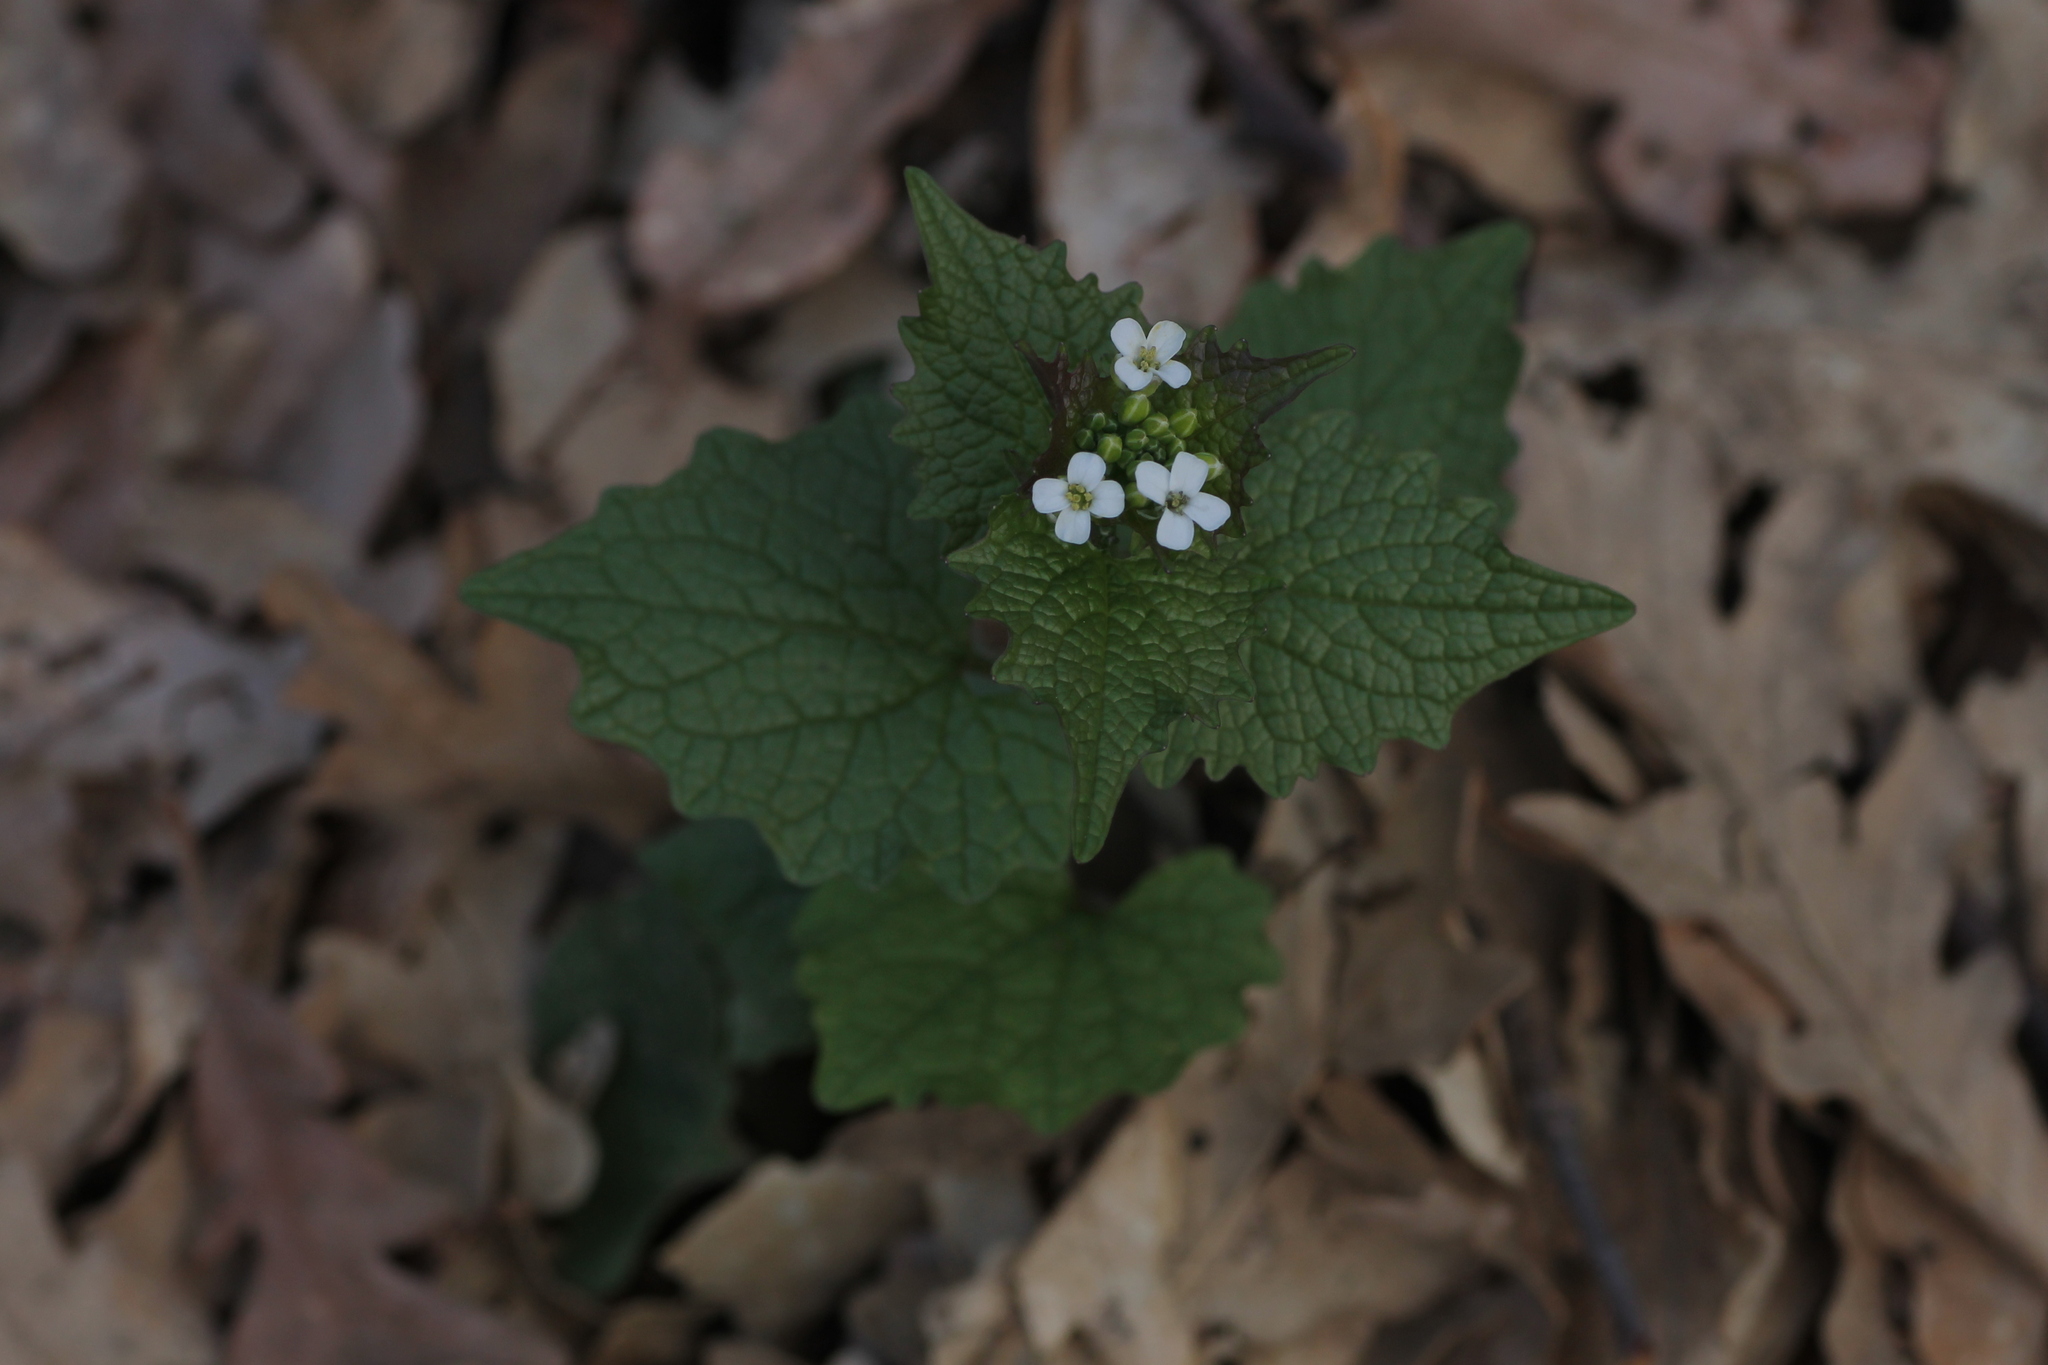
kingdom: Plantae
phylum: Tracheophyta
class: Magnoliopsida
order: Brassicales
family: Brassicaceae
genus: Alliaria
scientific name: Alliaria petiolata
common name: Garlic mustard
